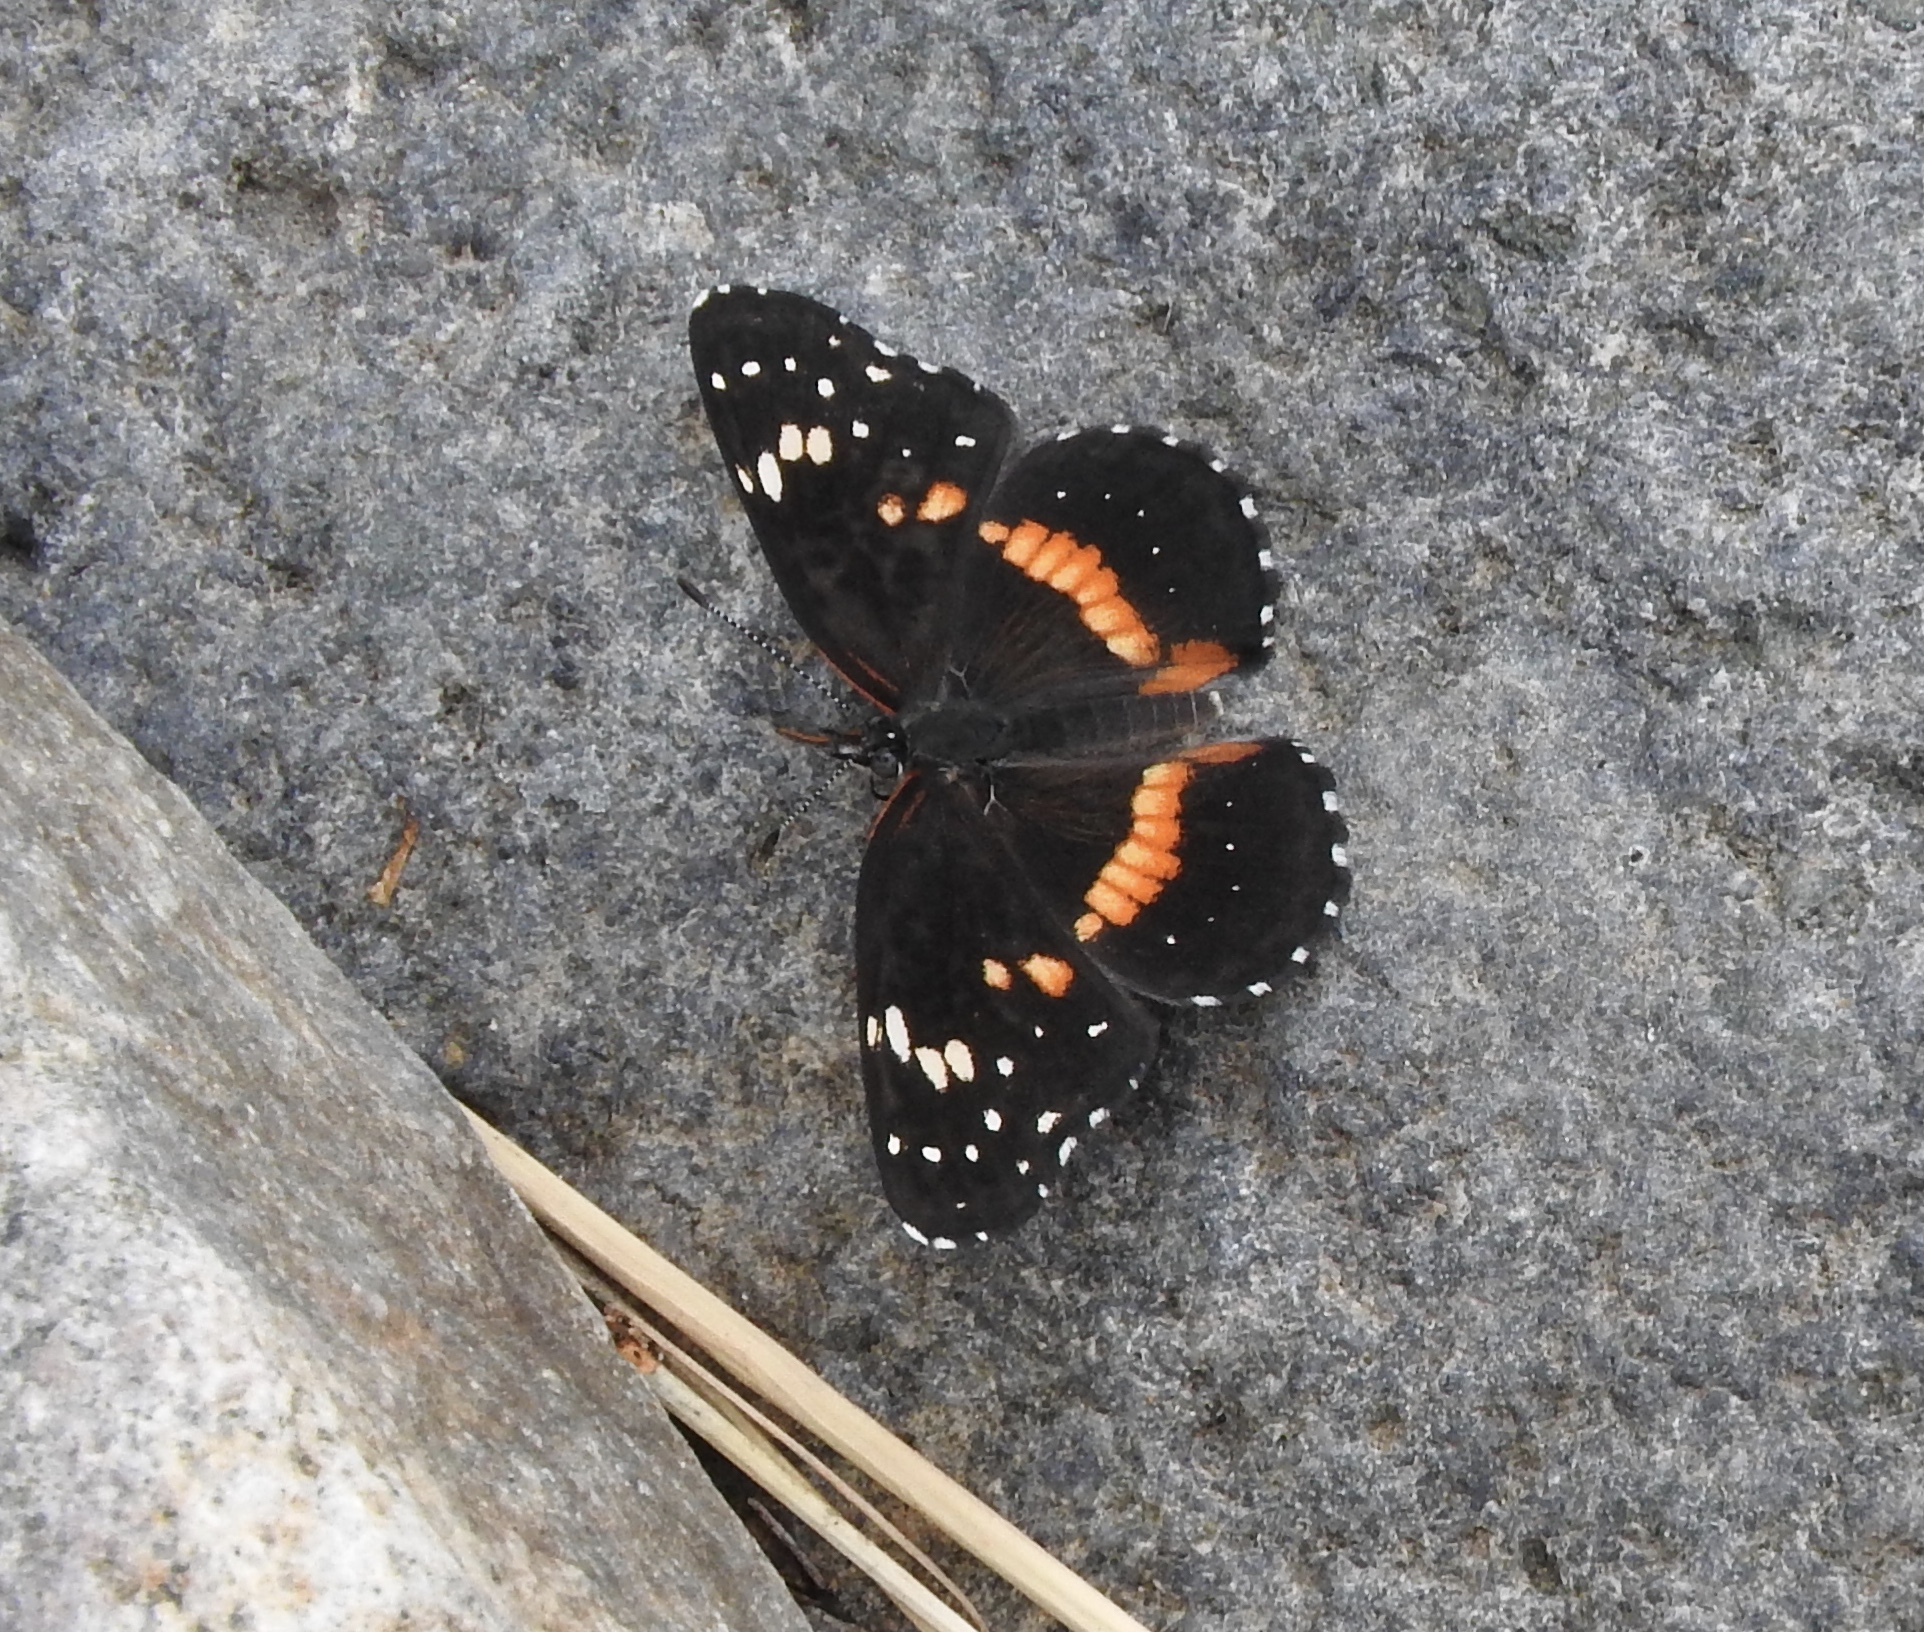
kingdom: Animalia
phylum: Arthropoda
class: Insecta
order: Lepidoptera
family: Nymphalidae
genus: Chlosyne
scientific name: Chlosyne lacinia
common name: Bordered patch
